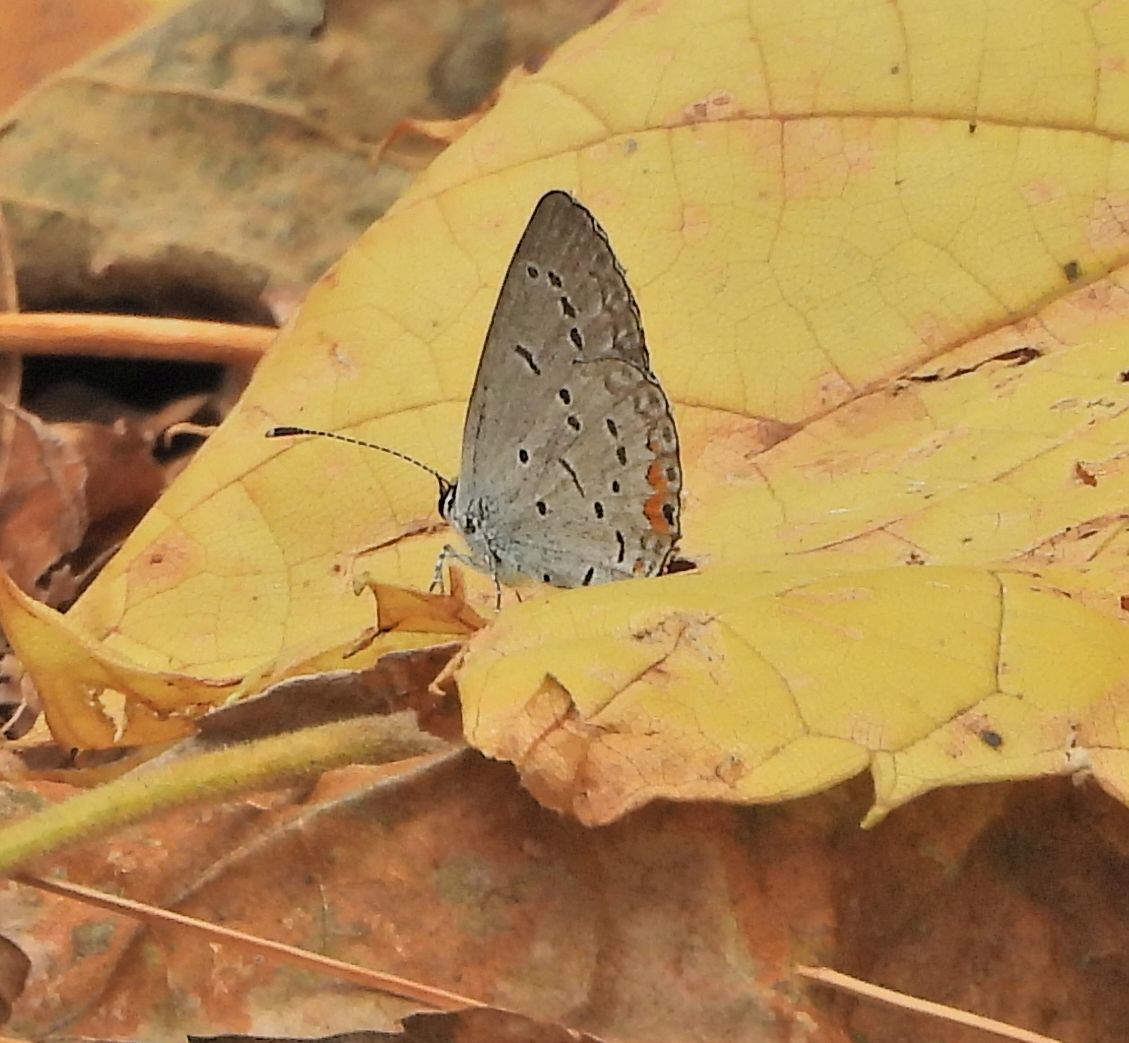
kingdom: Animalia
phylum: Arthropoda
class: Insecta
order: Lepidoptera
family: Lycaenidae
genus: Elkalyce
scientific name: Elkalyce comyntas
